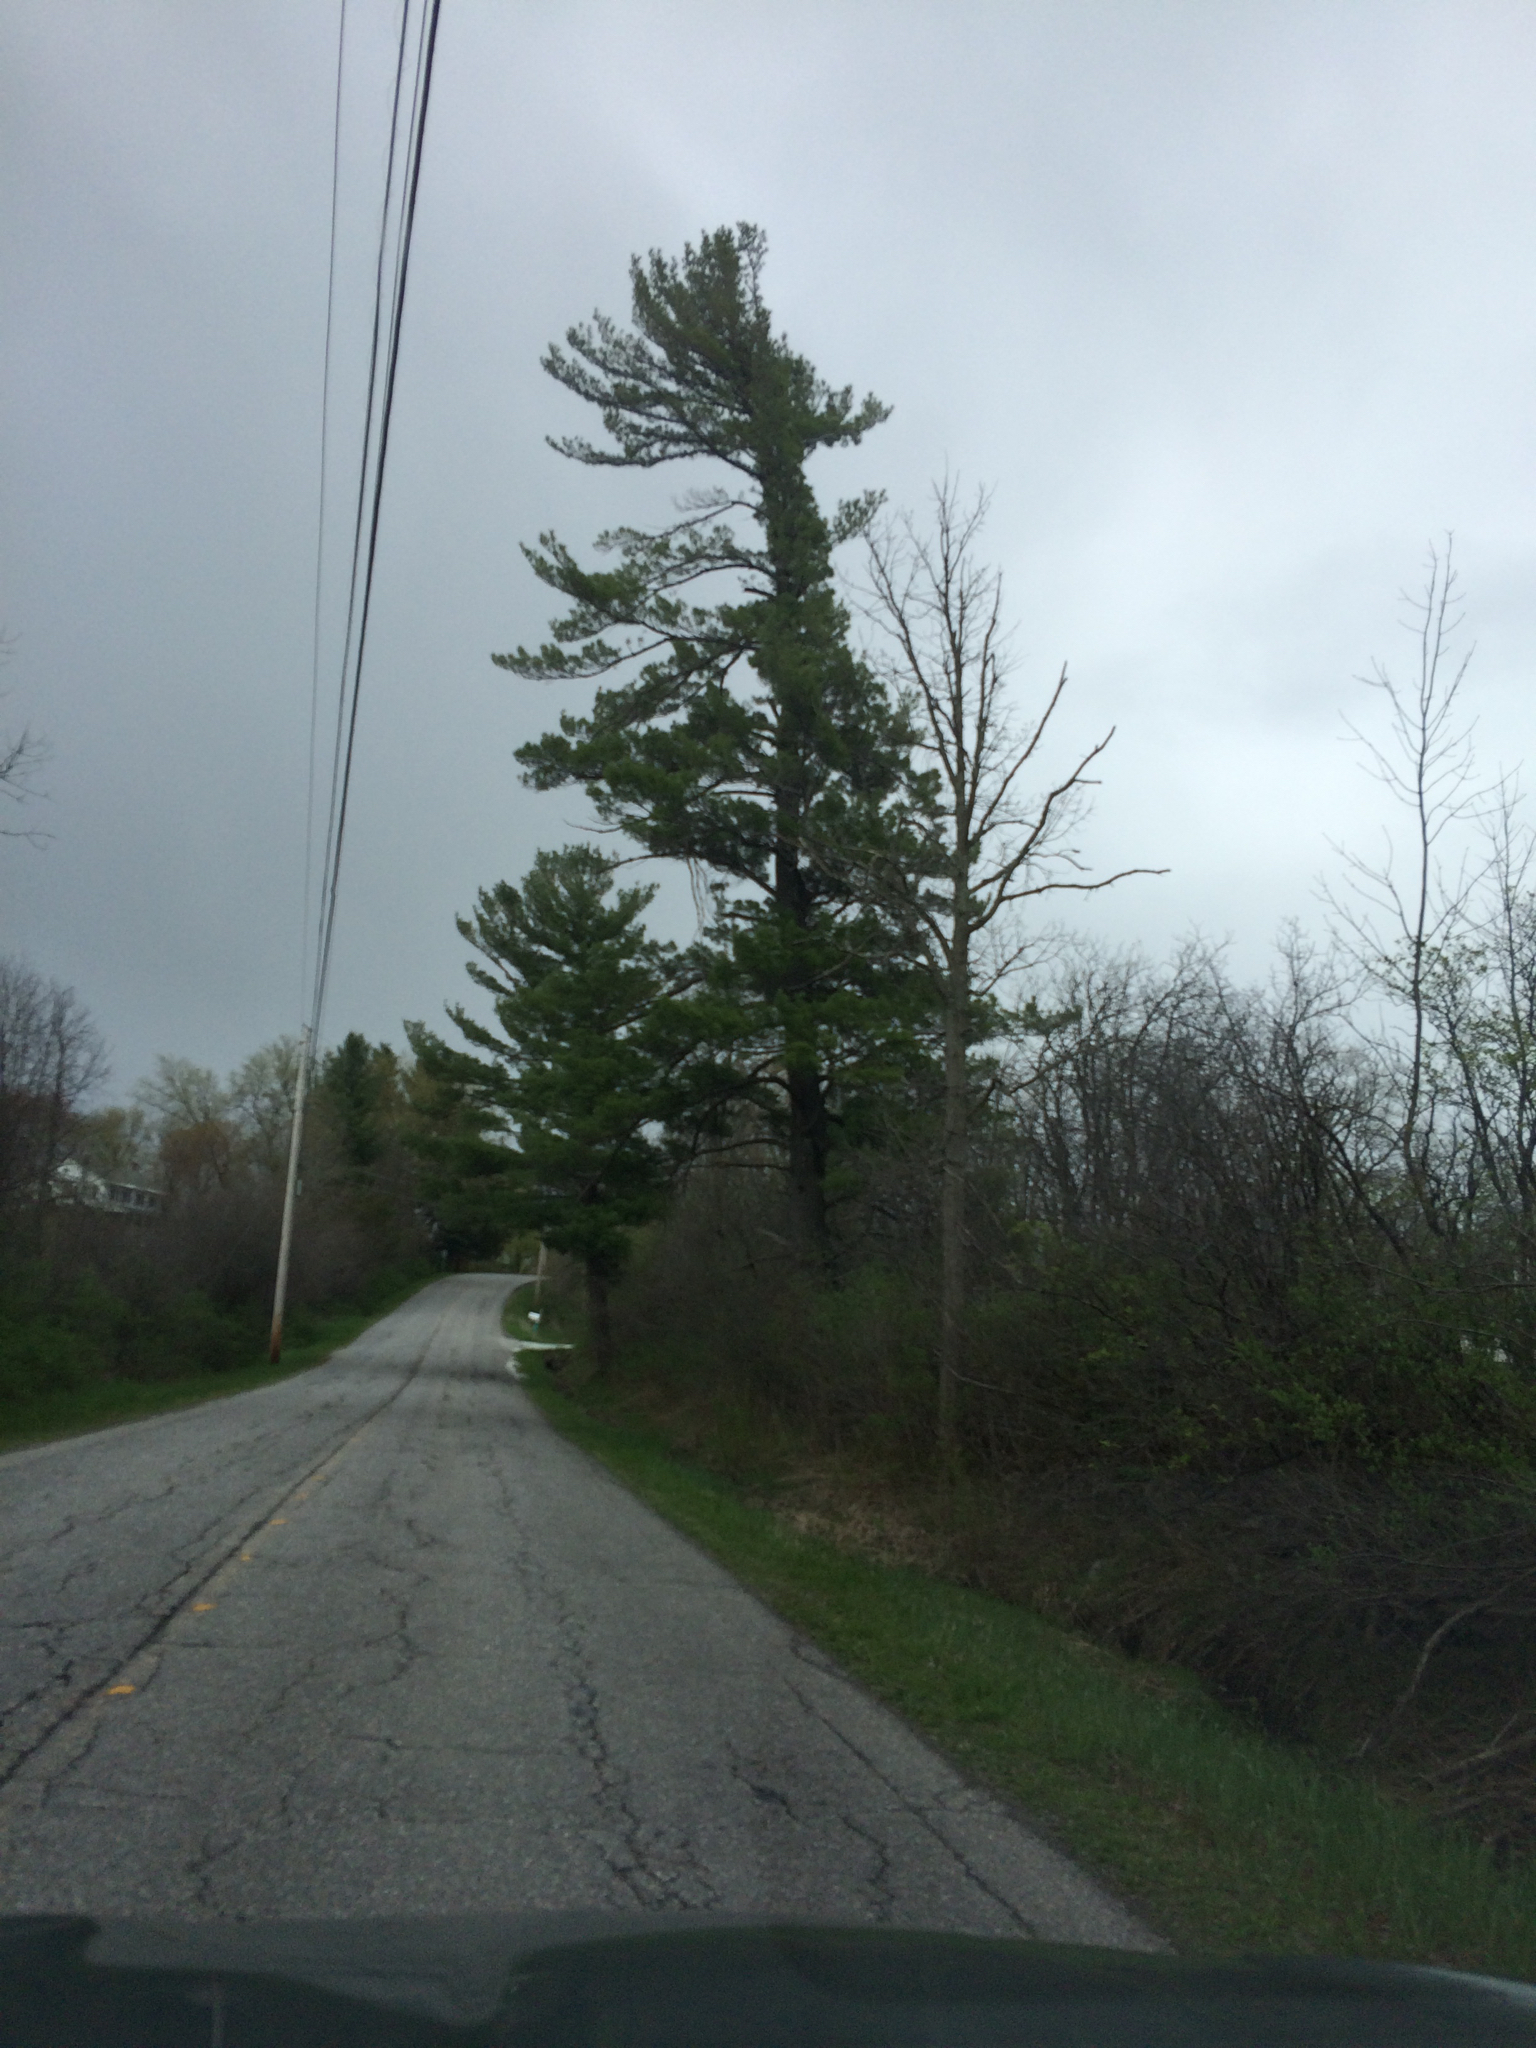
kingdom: Plantae
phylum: Tracheophyta
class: Pinopsida
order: Pinales
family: Pinaceae
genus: Pinus
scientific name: Pinus strobus
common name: Weymouth pine
